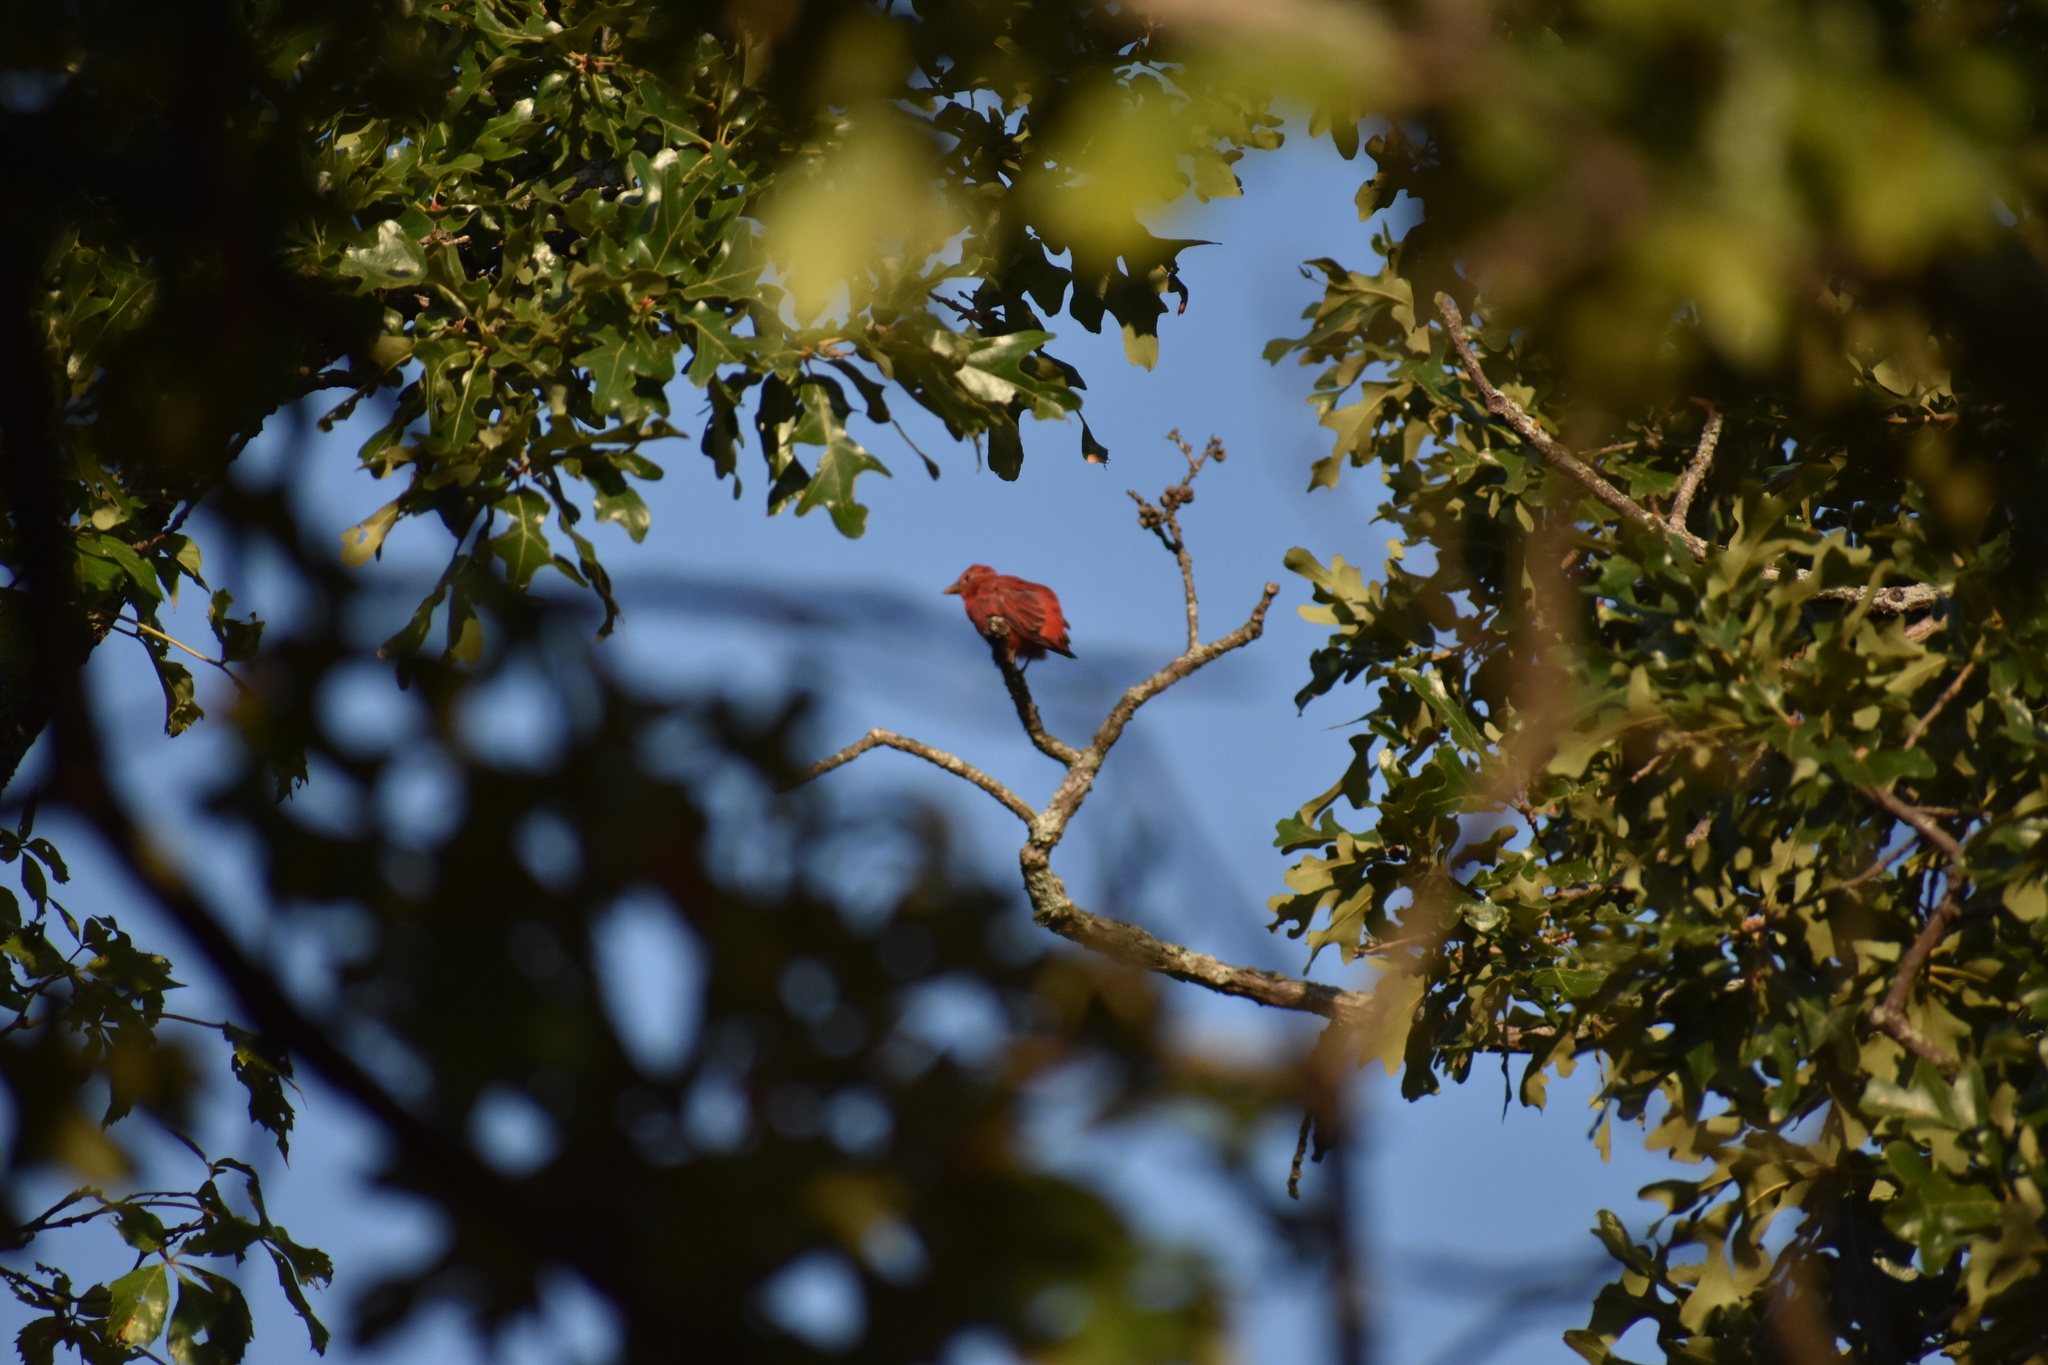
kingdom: Animalia
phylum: Chordata
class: Aves
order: Passeriformes
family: Cardinalidae
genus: Piranga
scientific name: Piranga rubra
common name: Summer tanager
